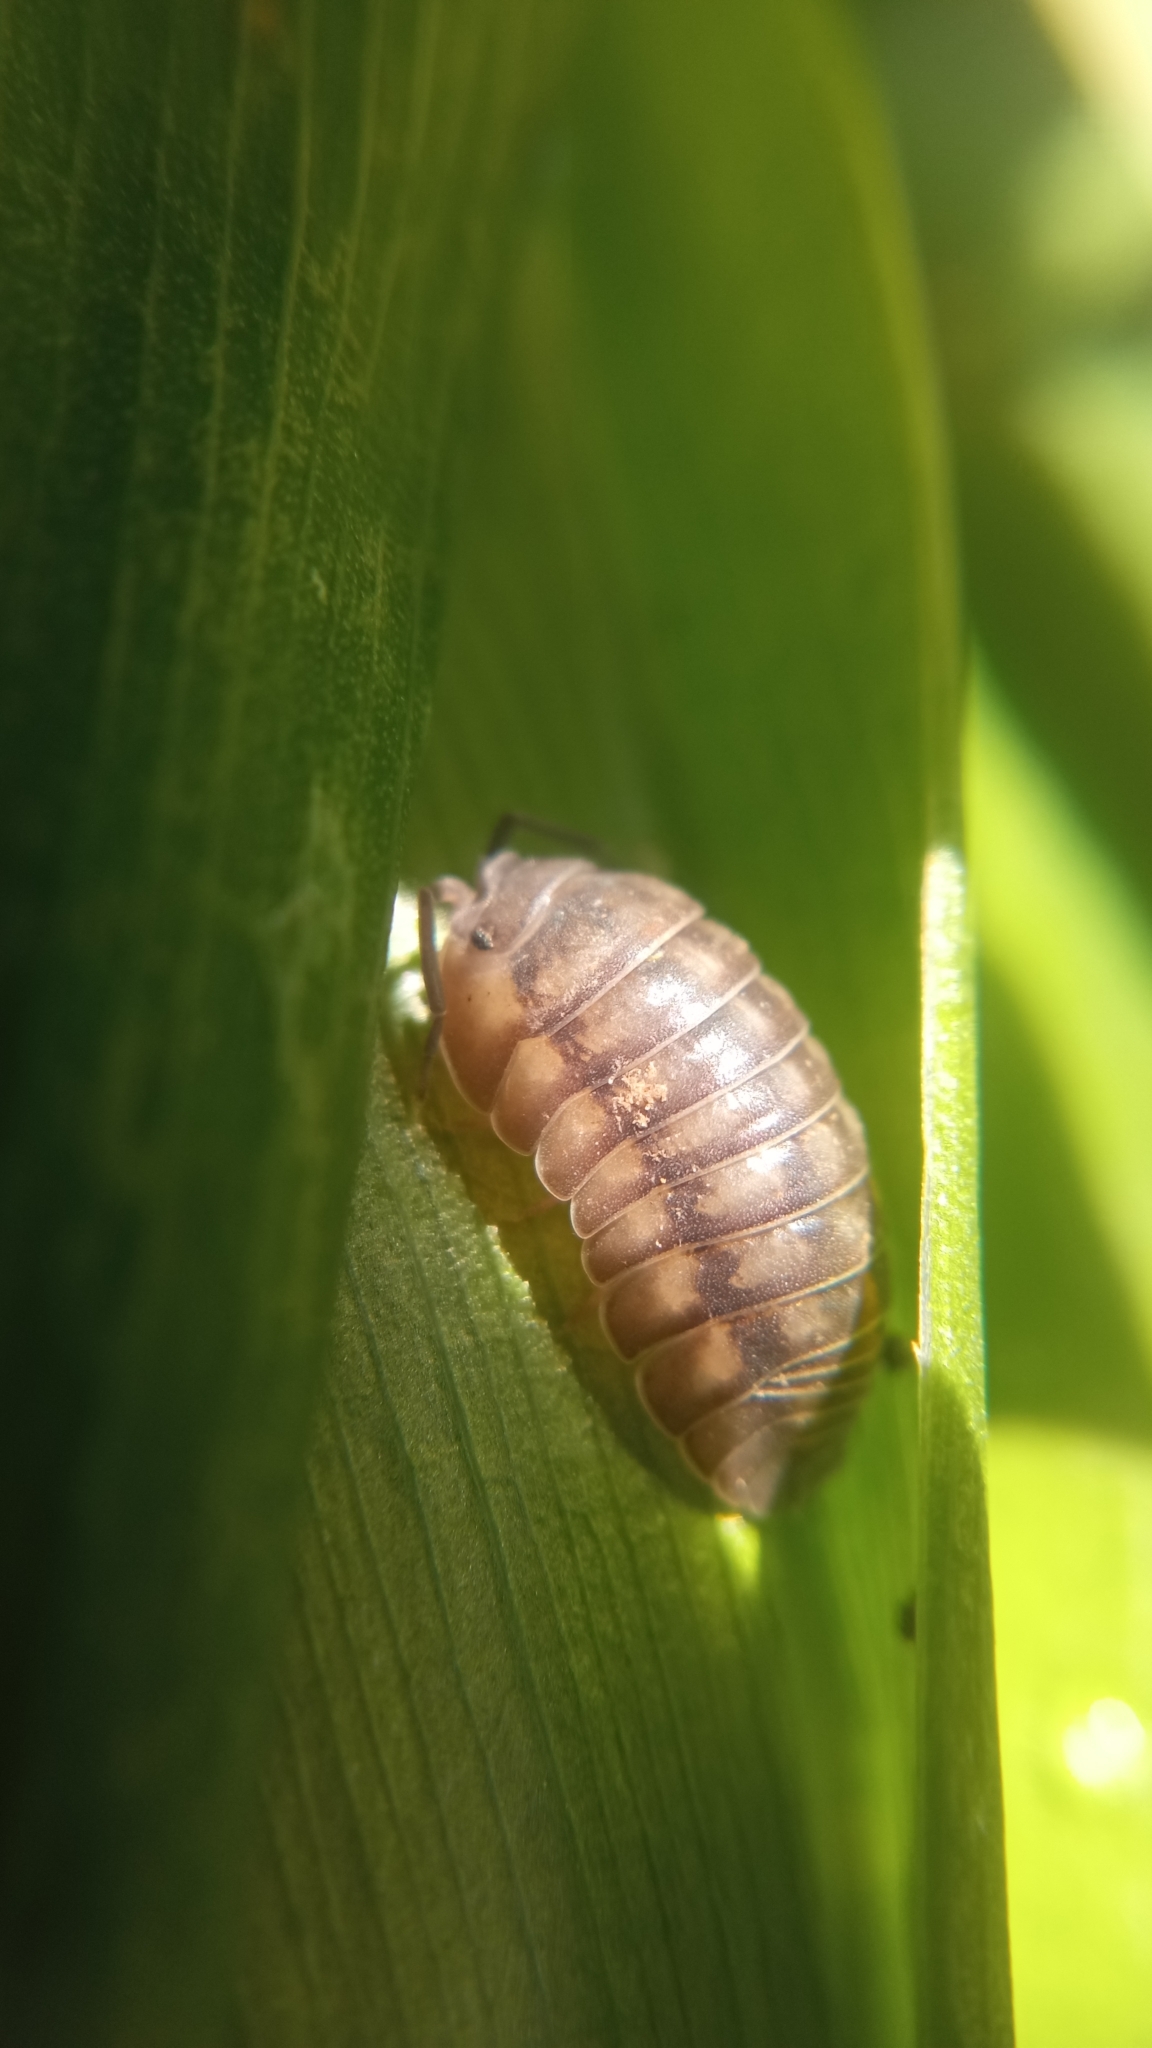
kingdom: Animalia
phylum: Arthropoda
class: Malacostraca
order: Isopoda
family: Armadillidiidae
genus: Armadillidium
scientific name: Armadillidium nasatum
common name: Isopod
